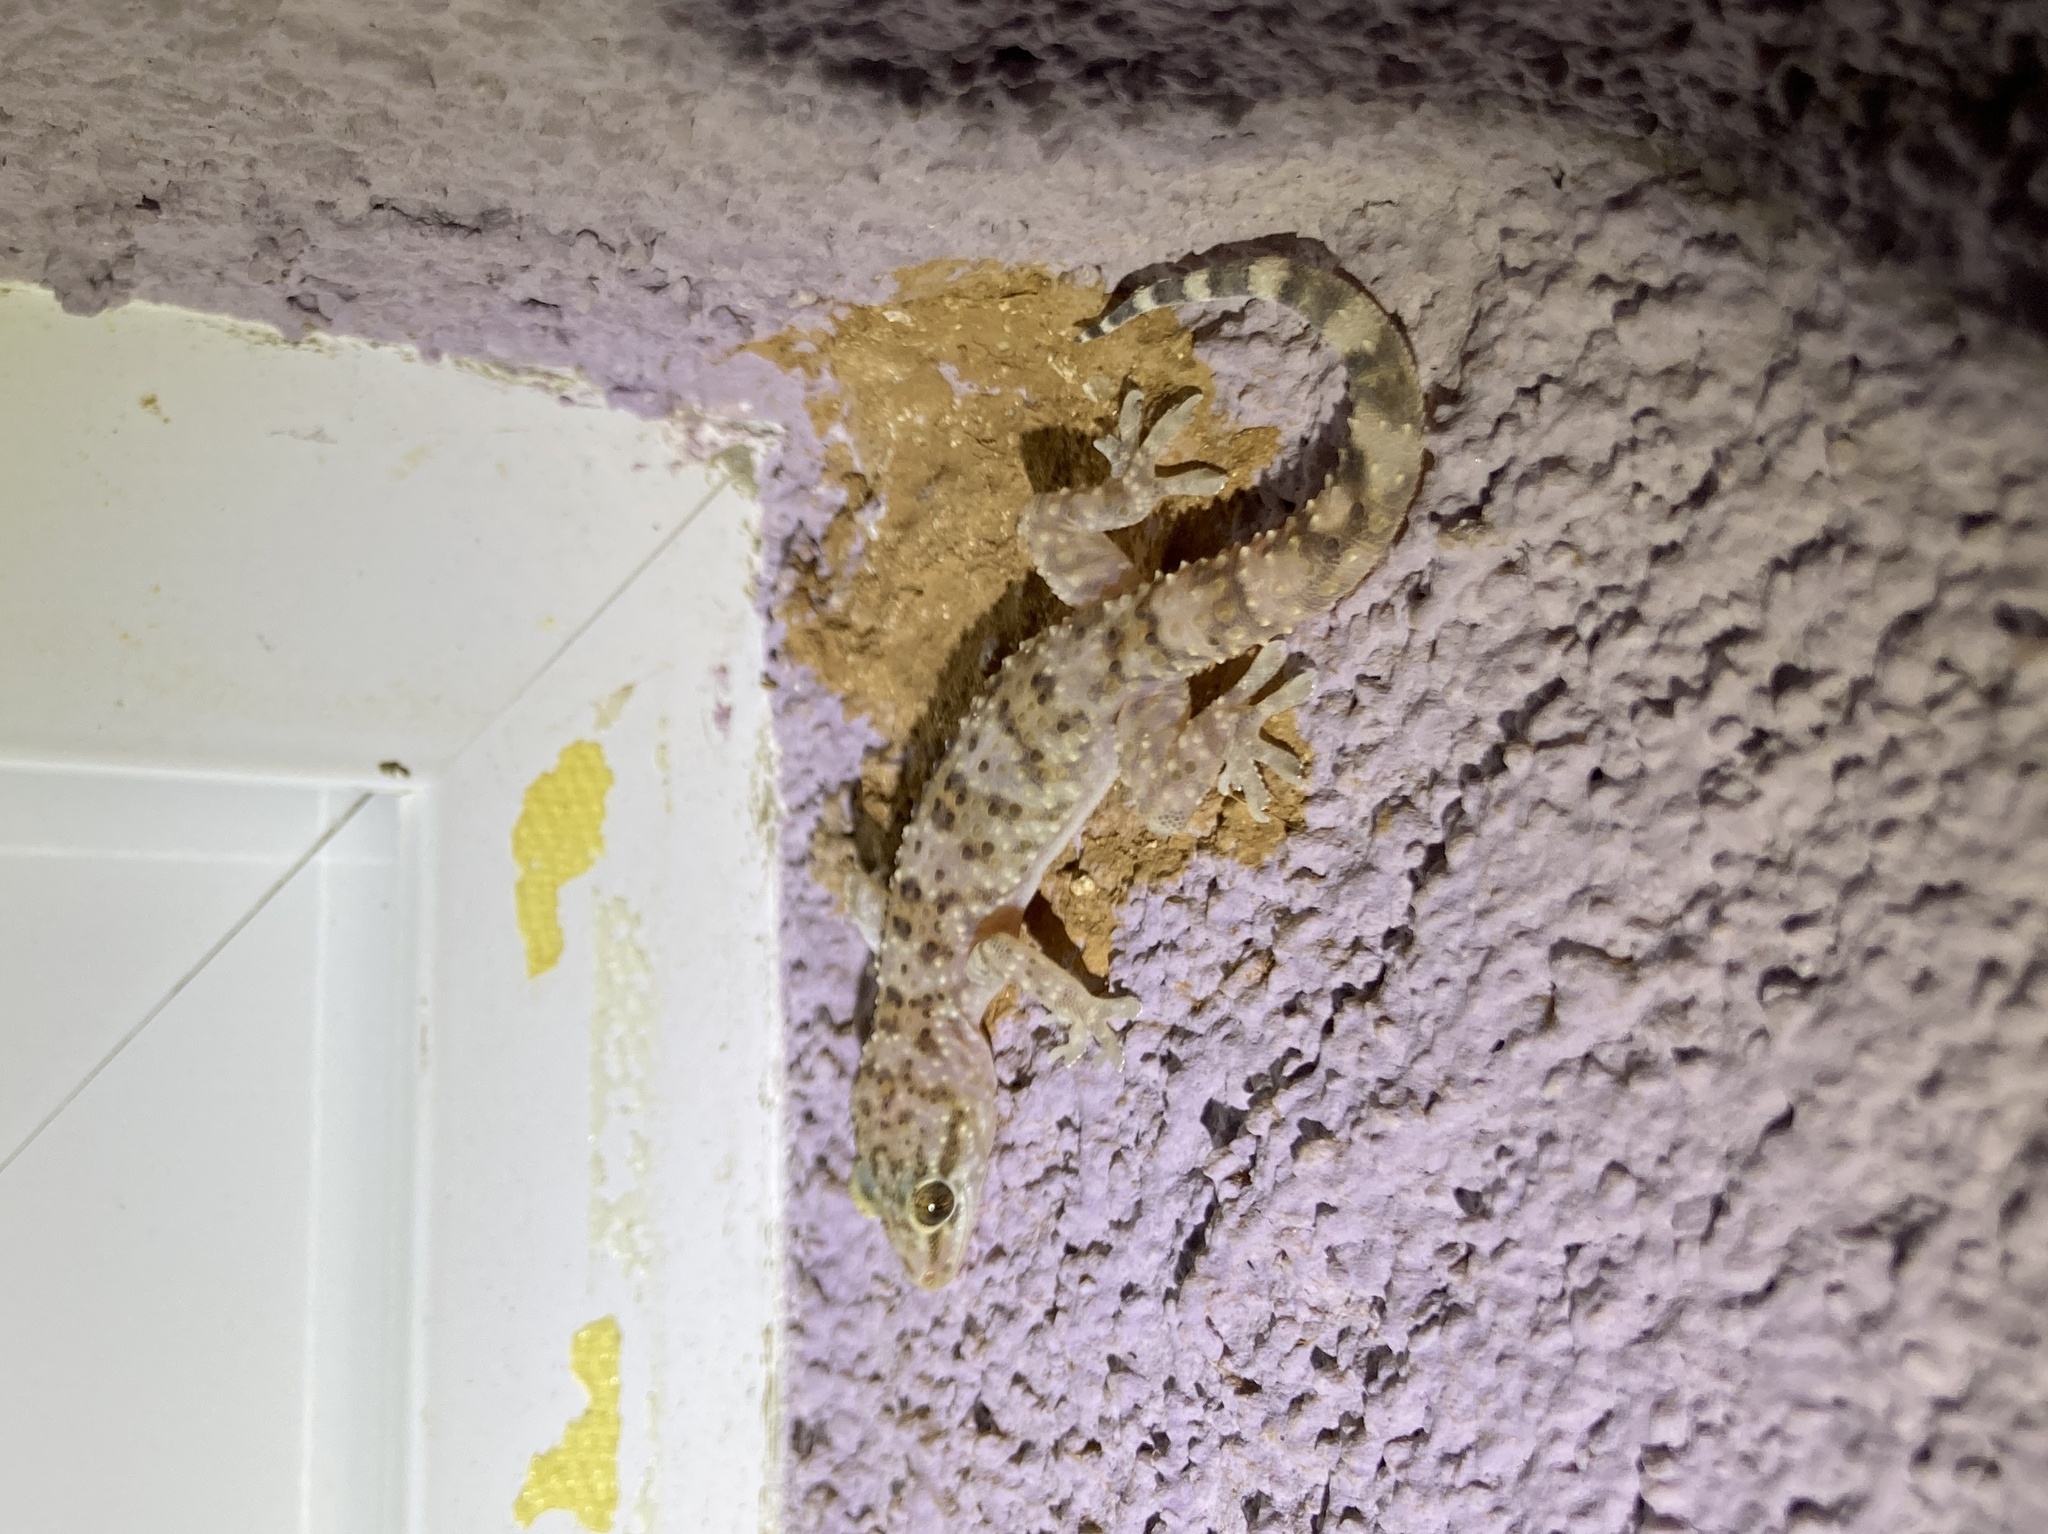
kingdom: Animalia
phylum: Chordata
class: Squamata
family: Gekkonidae
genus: Hemidactylus
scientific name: Hemidactylus turcicus
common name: Turkish gecko
